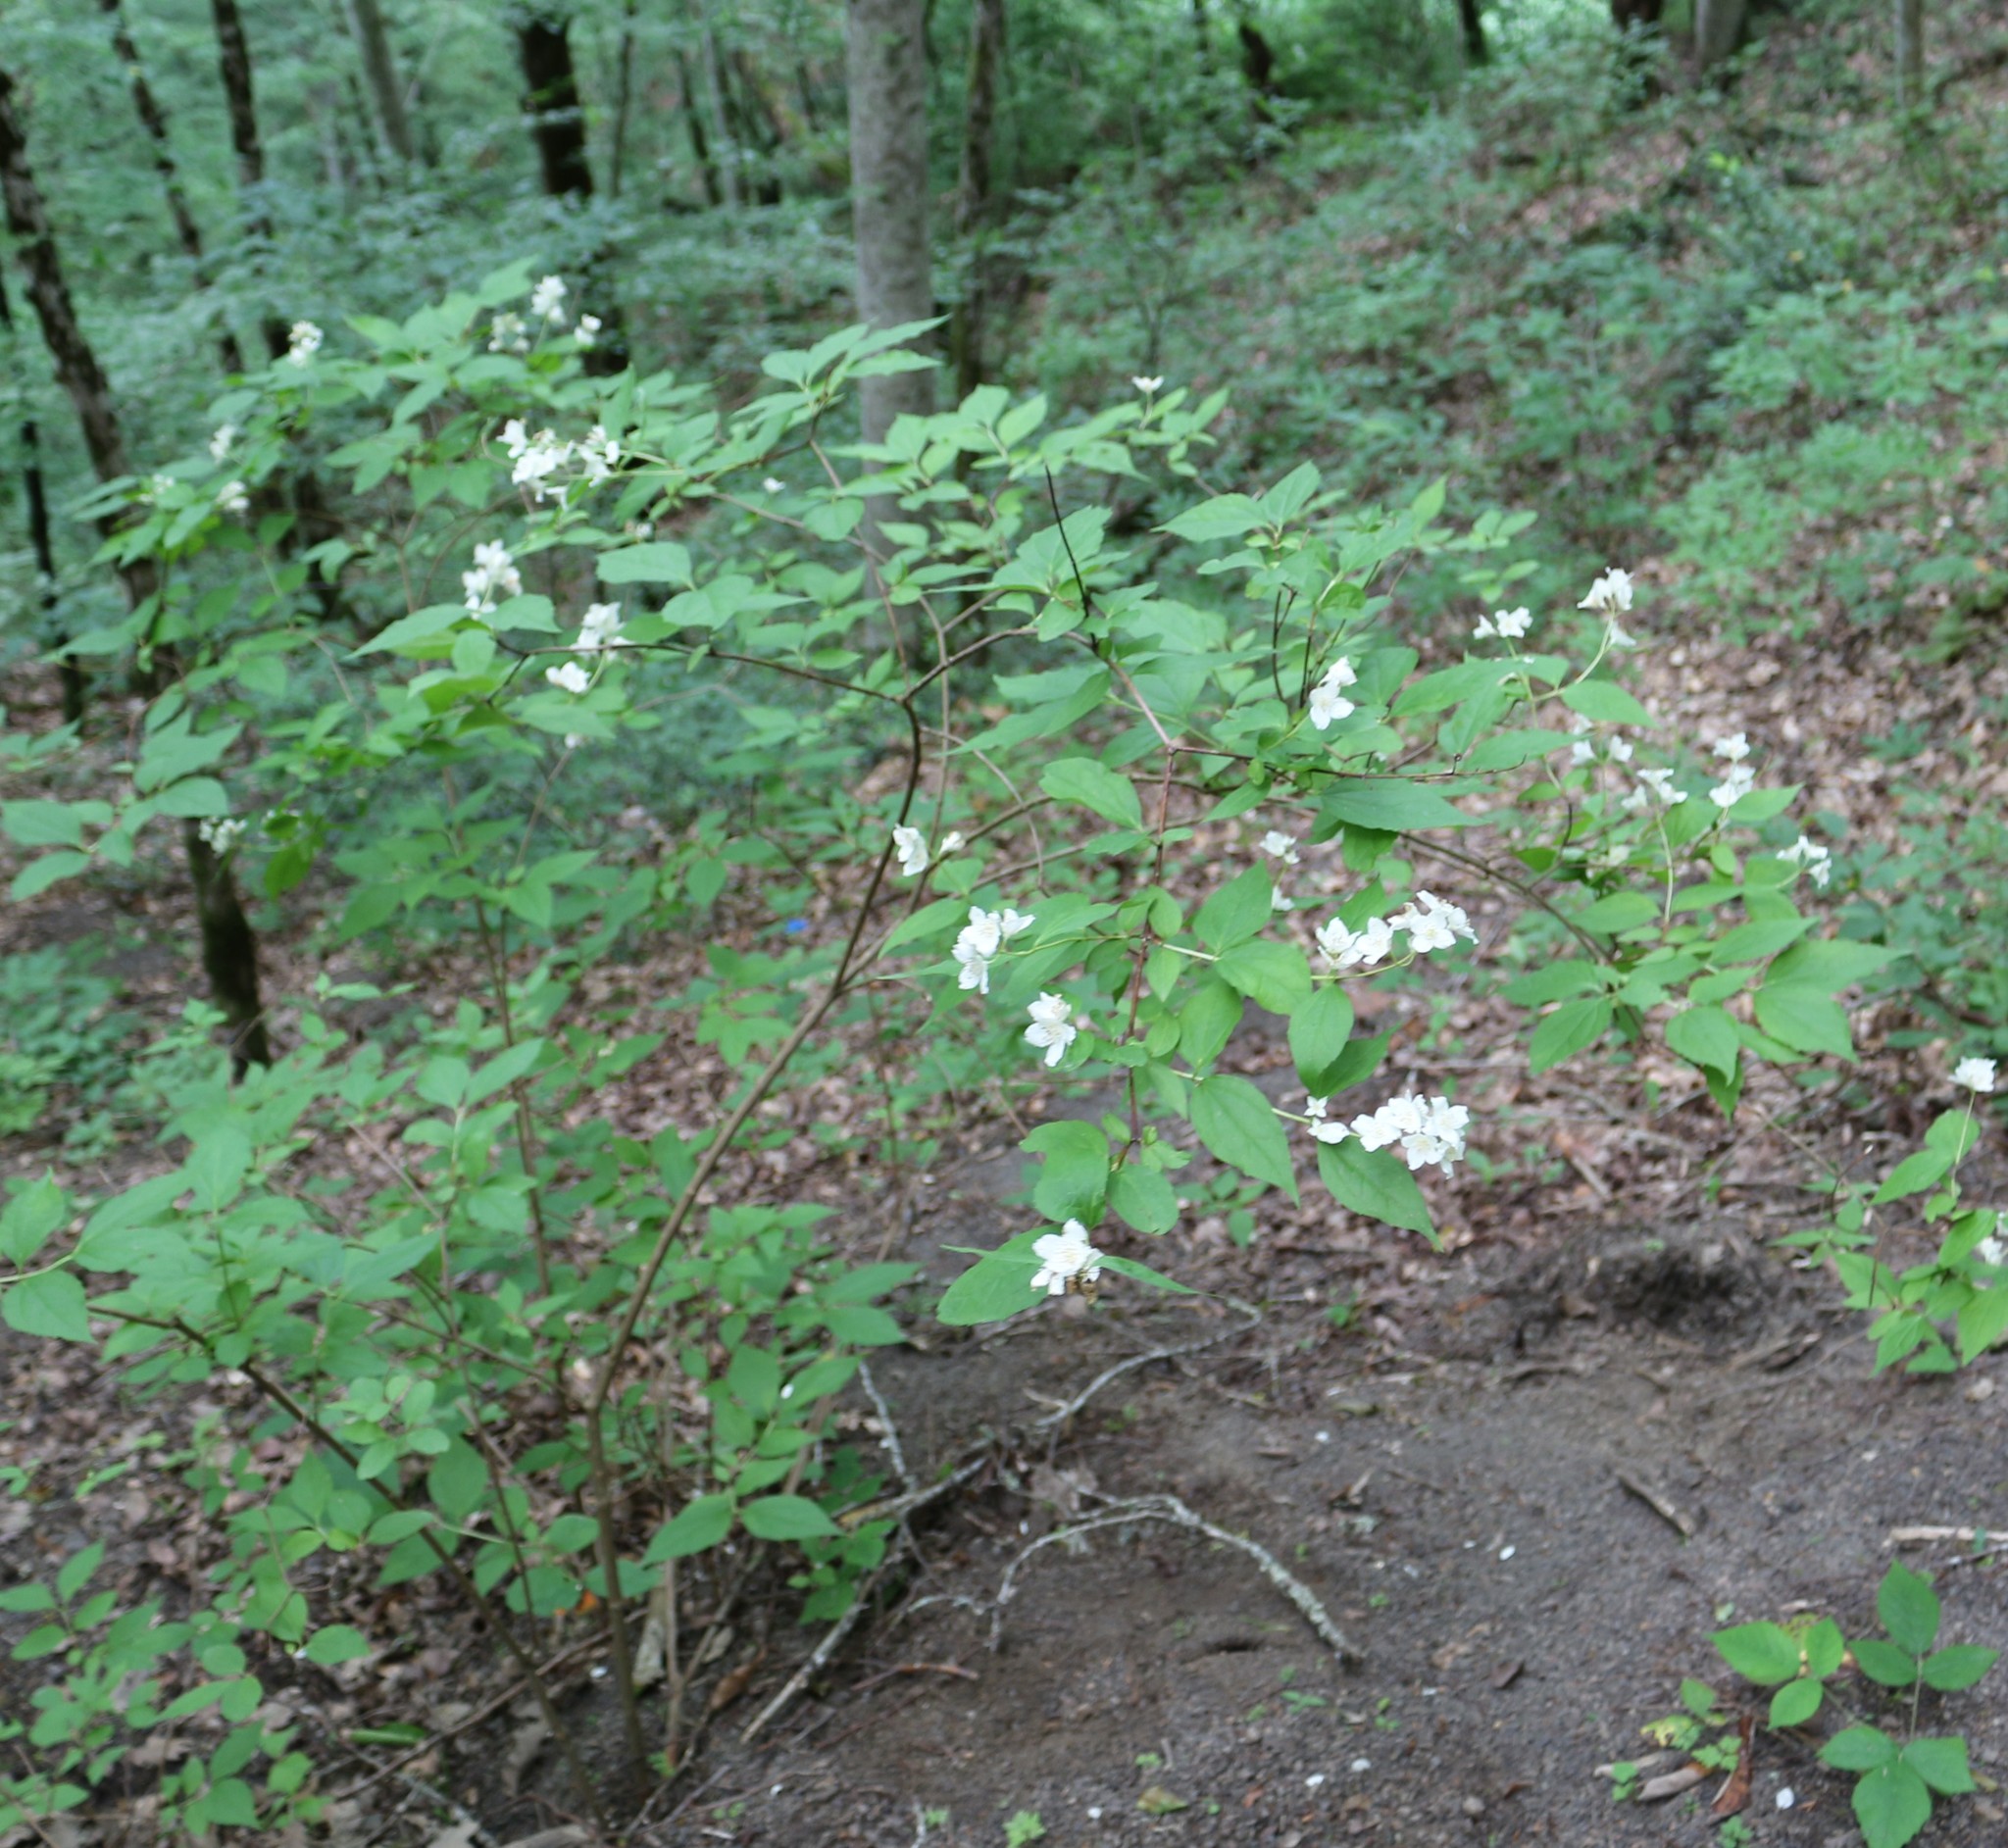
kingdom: Plantae
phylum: Tracheophyta
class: Magnoliopsida
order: Cornales
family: Hydrangeaceae
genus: Philadelphus
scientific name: Philadelphus coronarius
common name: Mock orange
